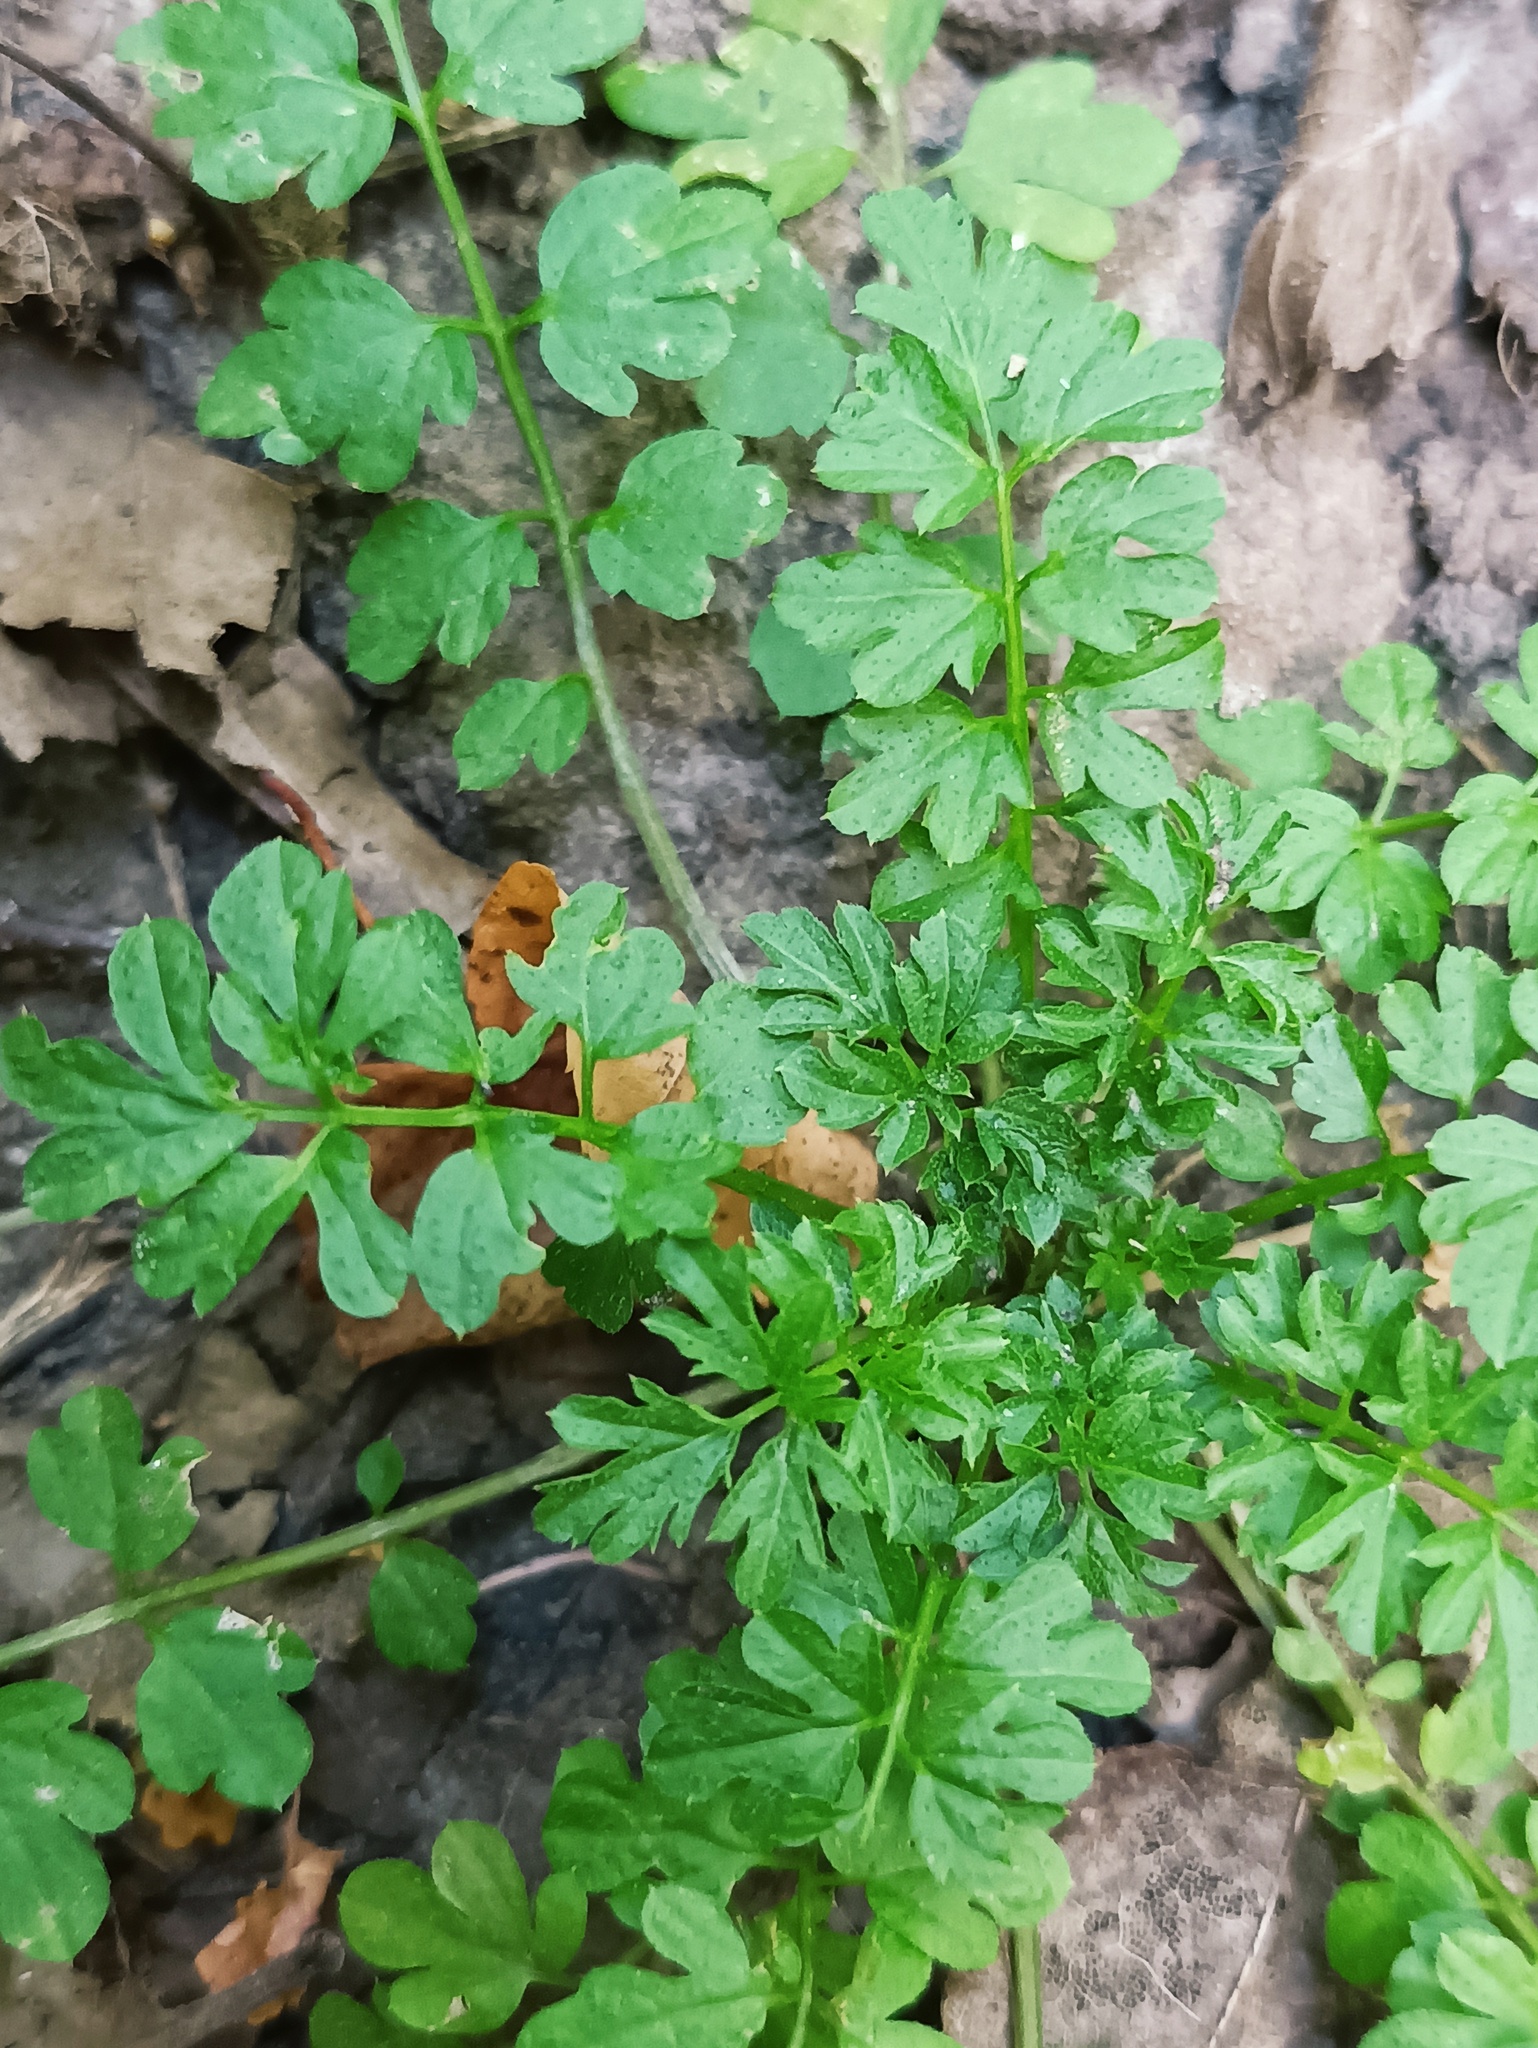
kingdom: Plantae
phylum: Tracheophyta
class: Magnoliopsida
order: Brassicales
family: Brassicaceae
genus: Cardamine
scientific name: Cardamine impatiens
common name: Narrow-leaved bitter-cress
